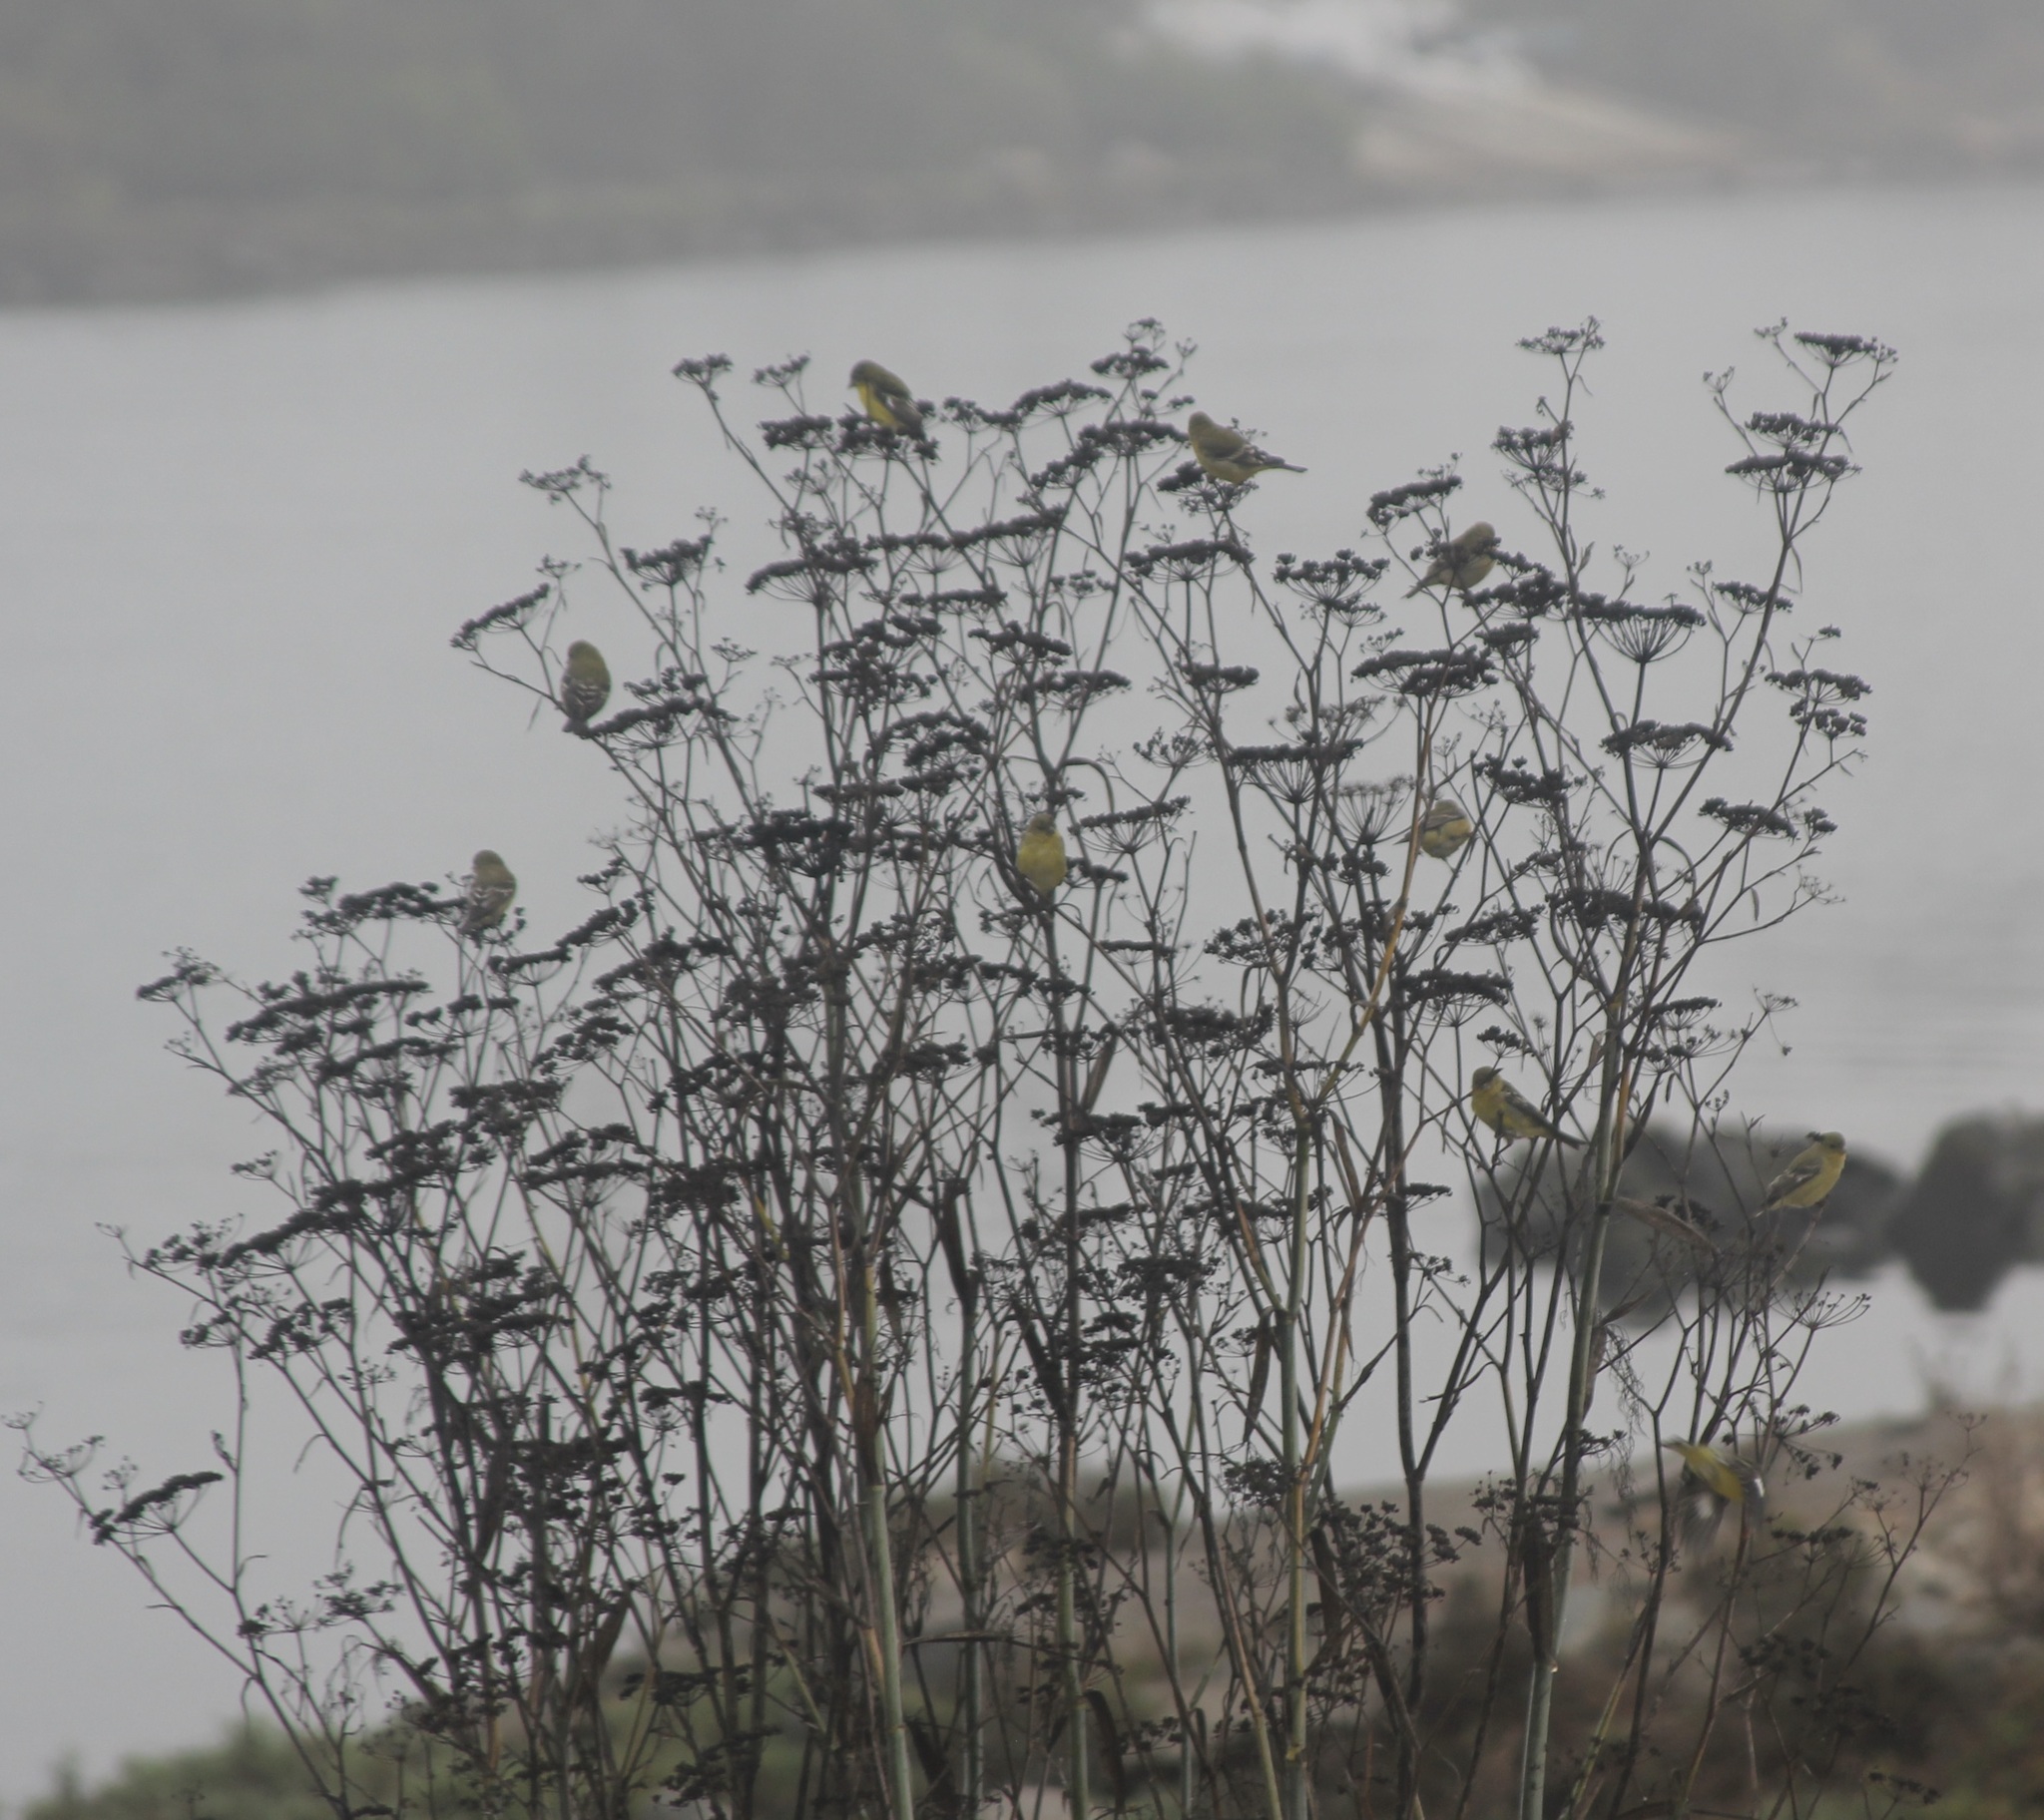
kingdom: Animalia
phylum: Chordata
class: Aves
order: Passeriformes
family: Fringillidae
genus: Spinus
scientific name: Spinus psaltria
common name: Lesser goldfinch
